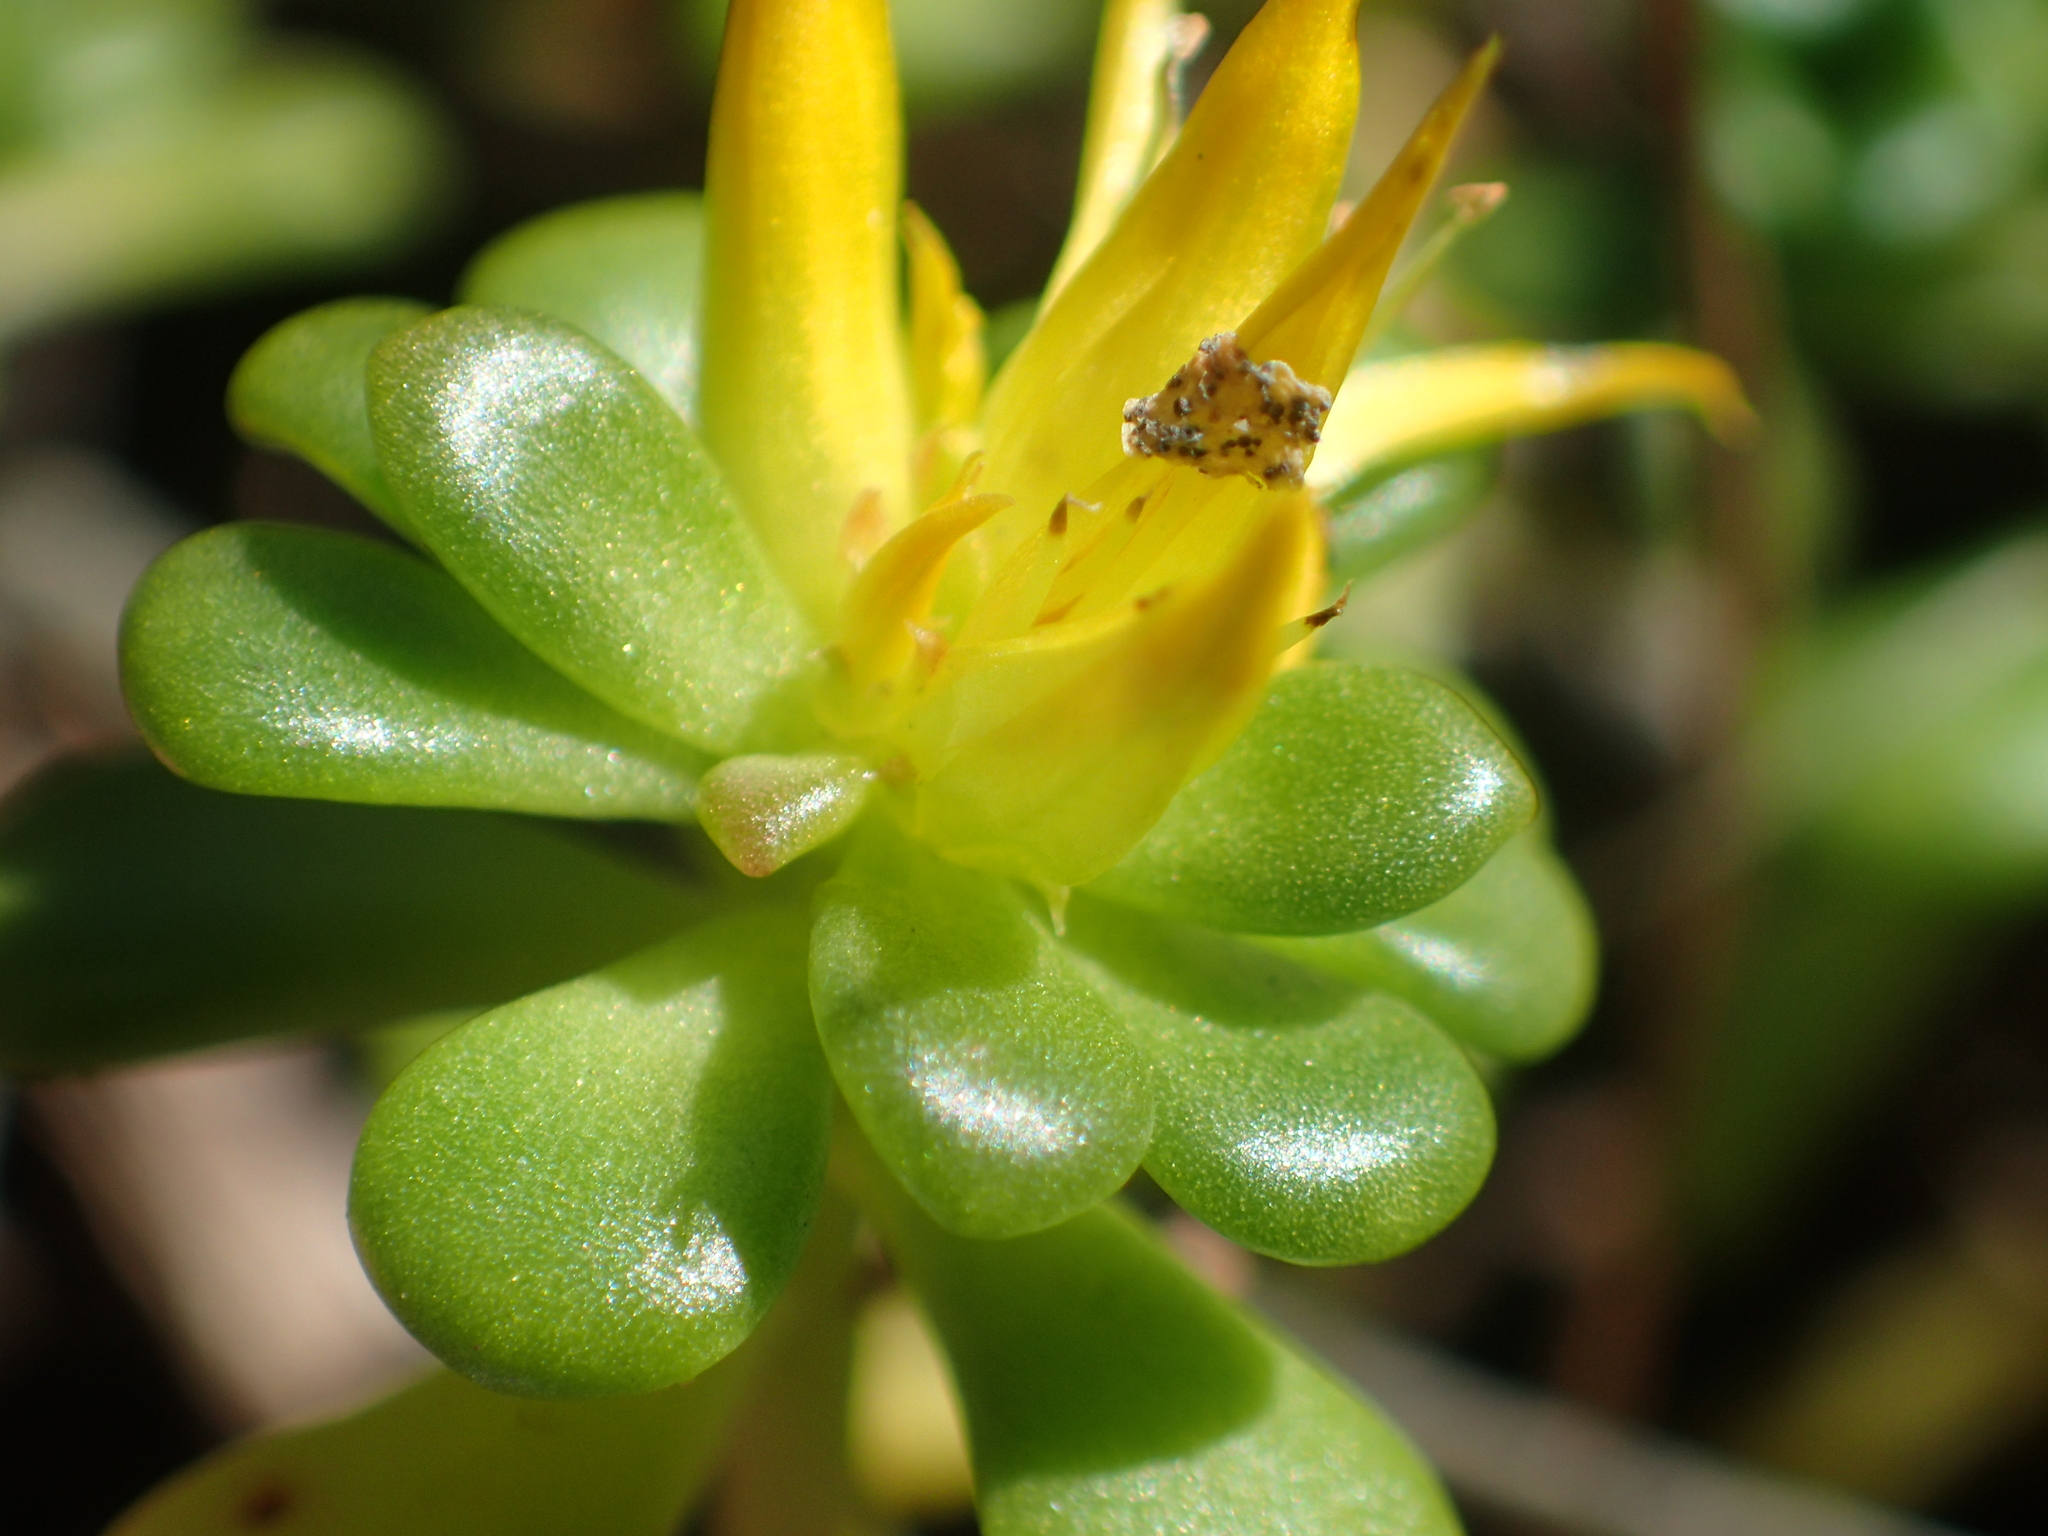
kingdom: Plantae
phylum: Tracheophyta
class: Magnoliopsida
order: Saxifragales
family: Crassulaceae
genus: Sedum
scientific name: Sedum oreganum
